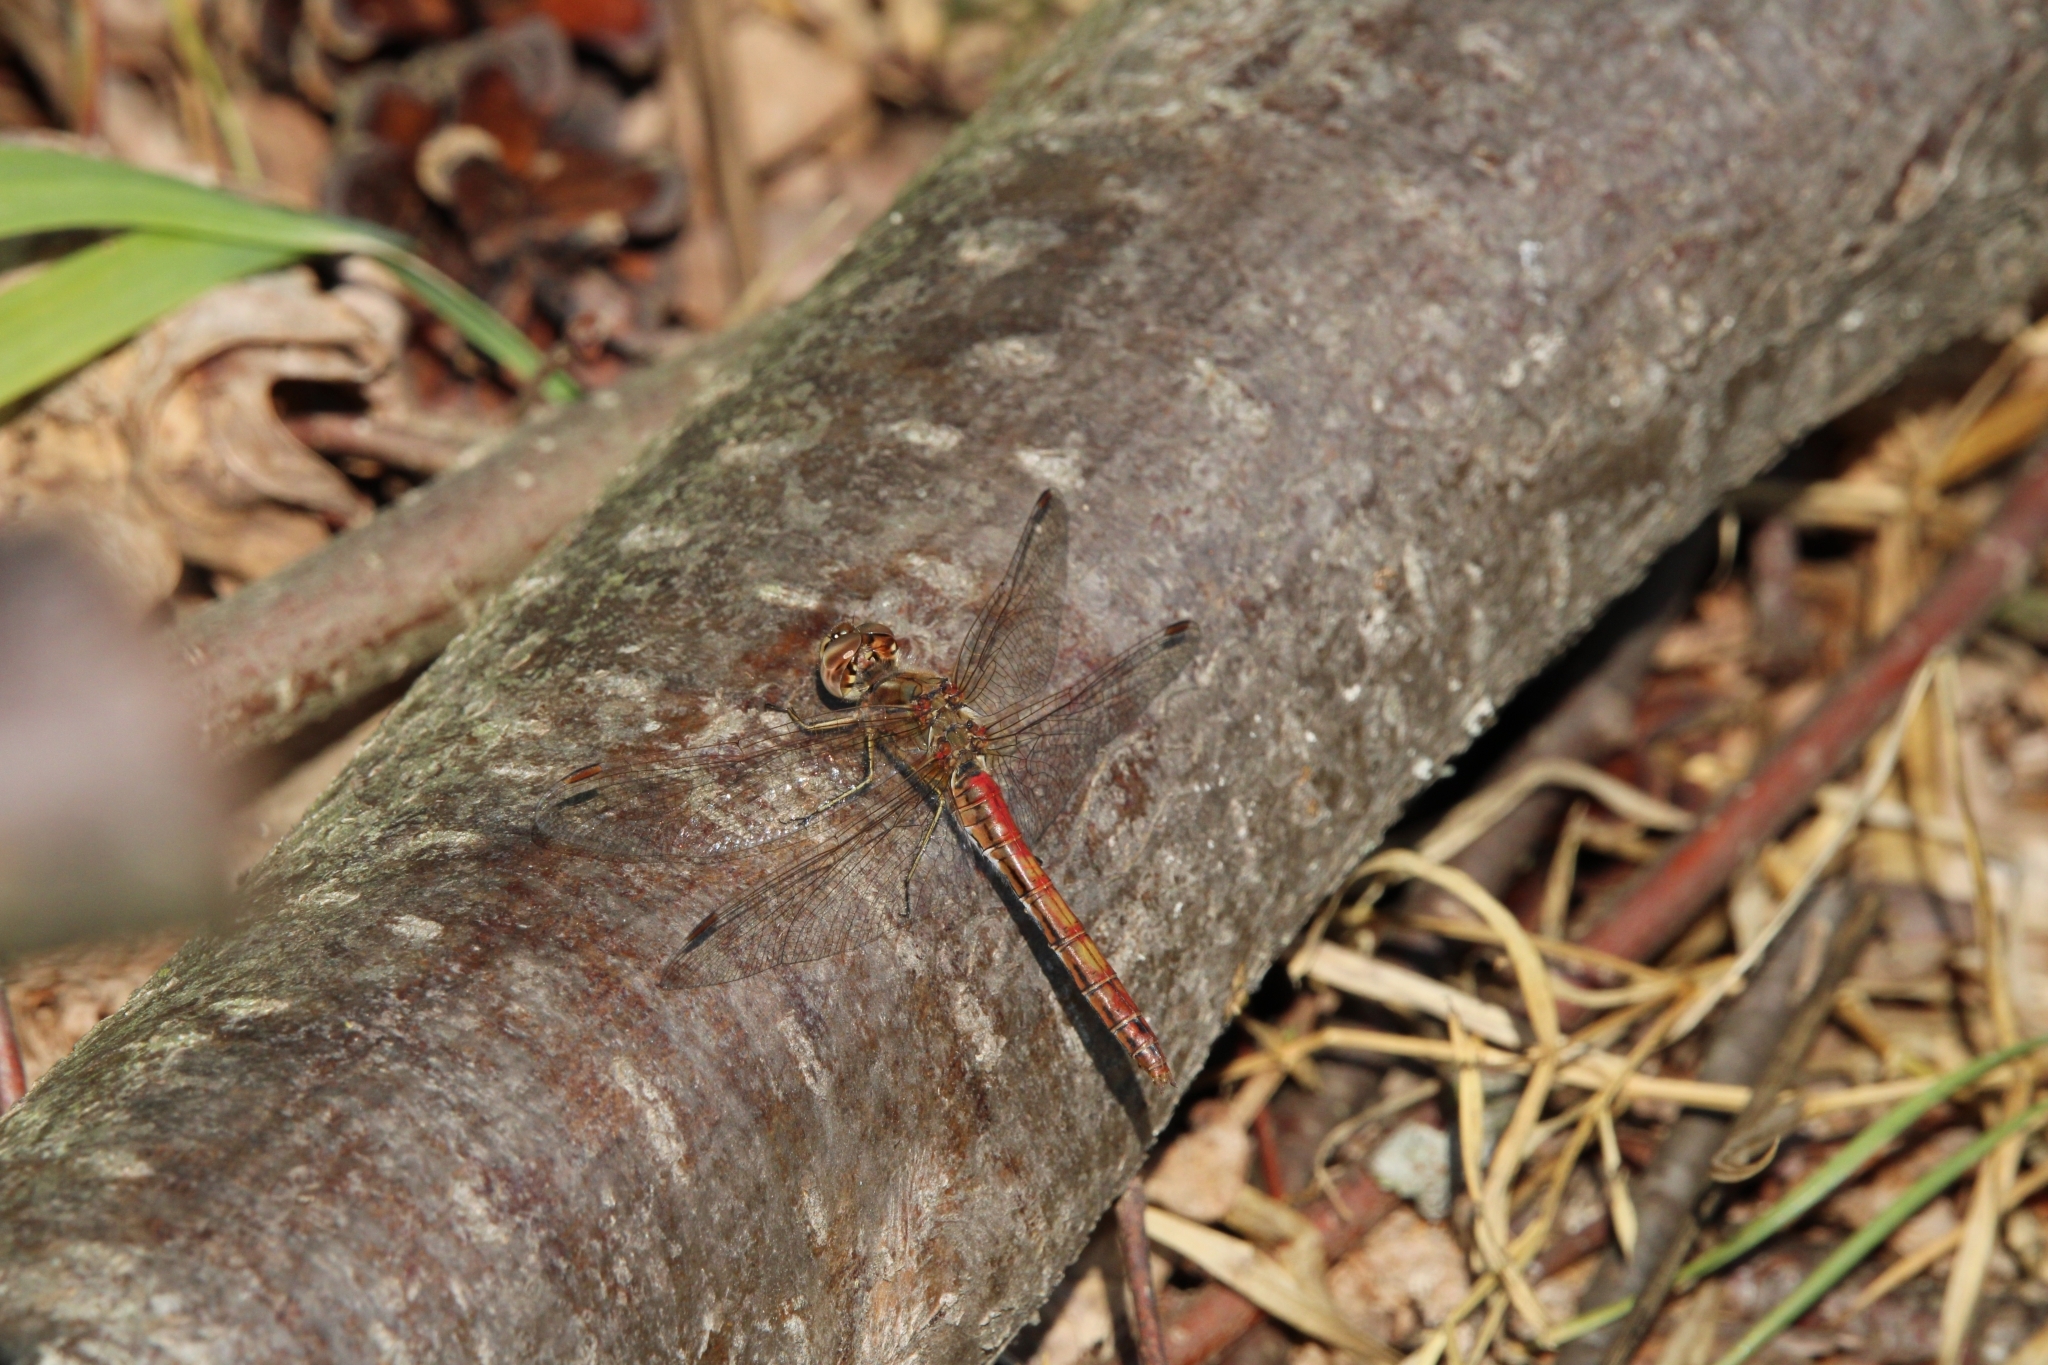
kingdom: Animalia
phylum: Arthropoda
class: Insecta
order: Odonata
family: Libellulidae
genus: Sympetrum
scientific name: Sympetrum vulgatum
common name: Vagrant darter
